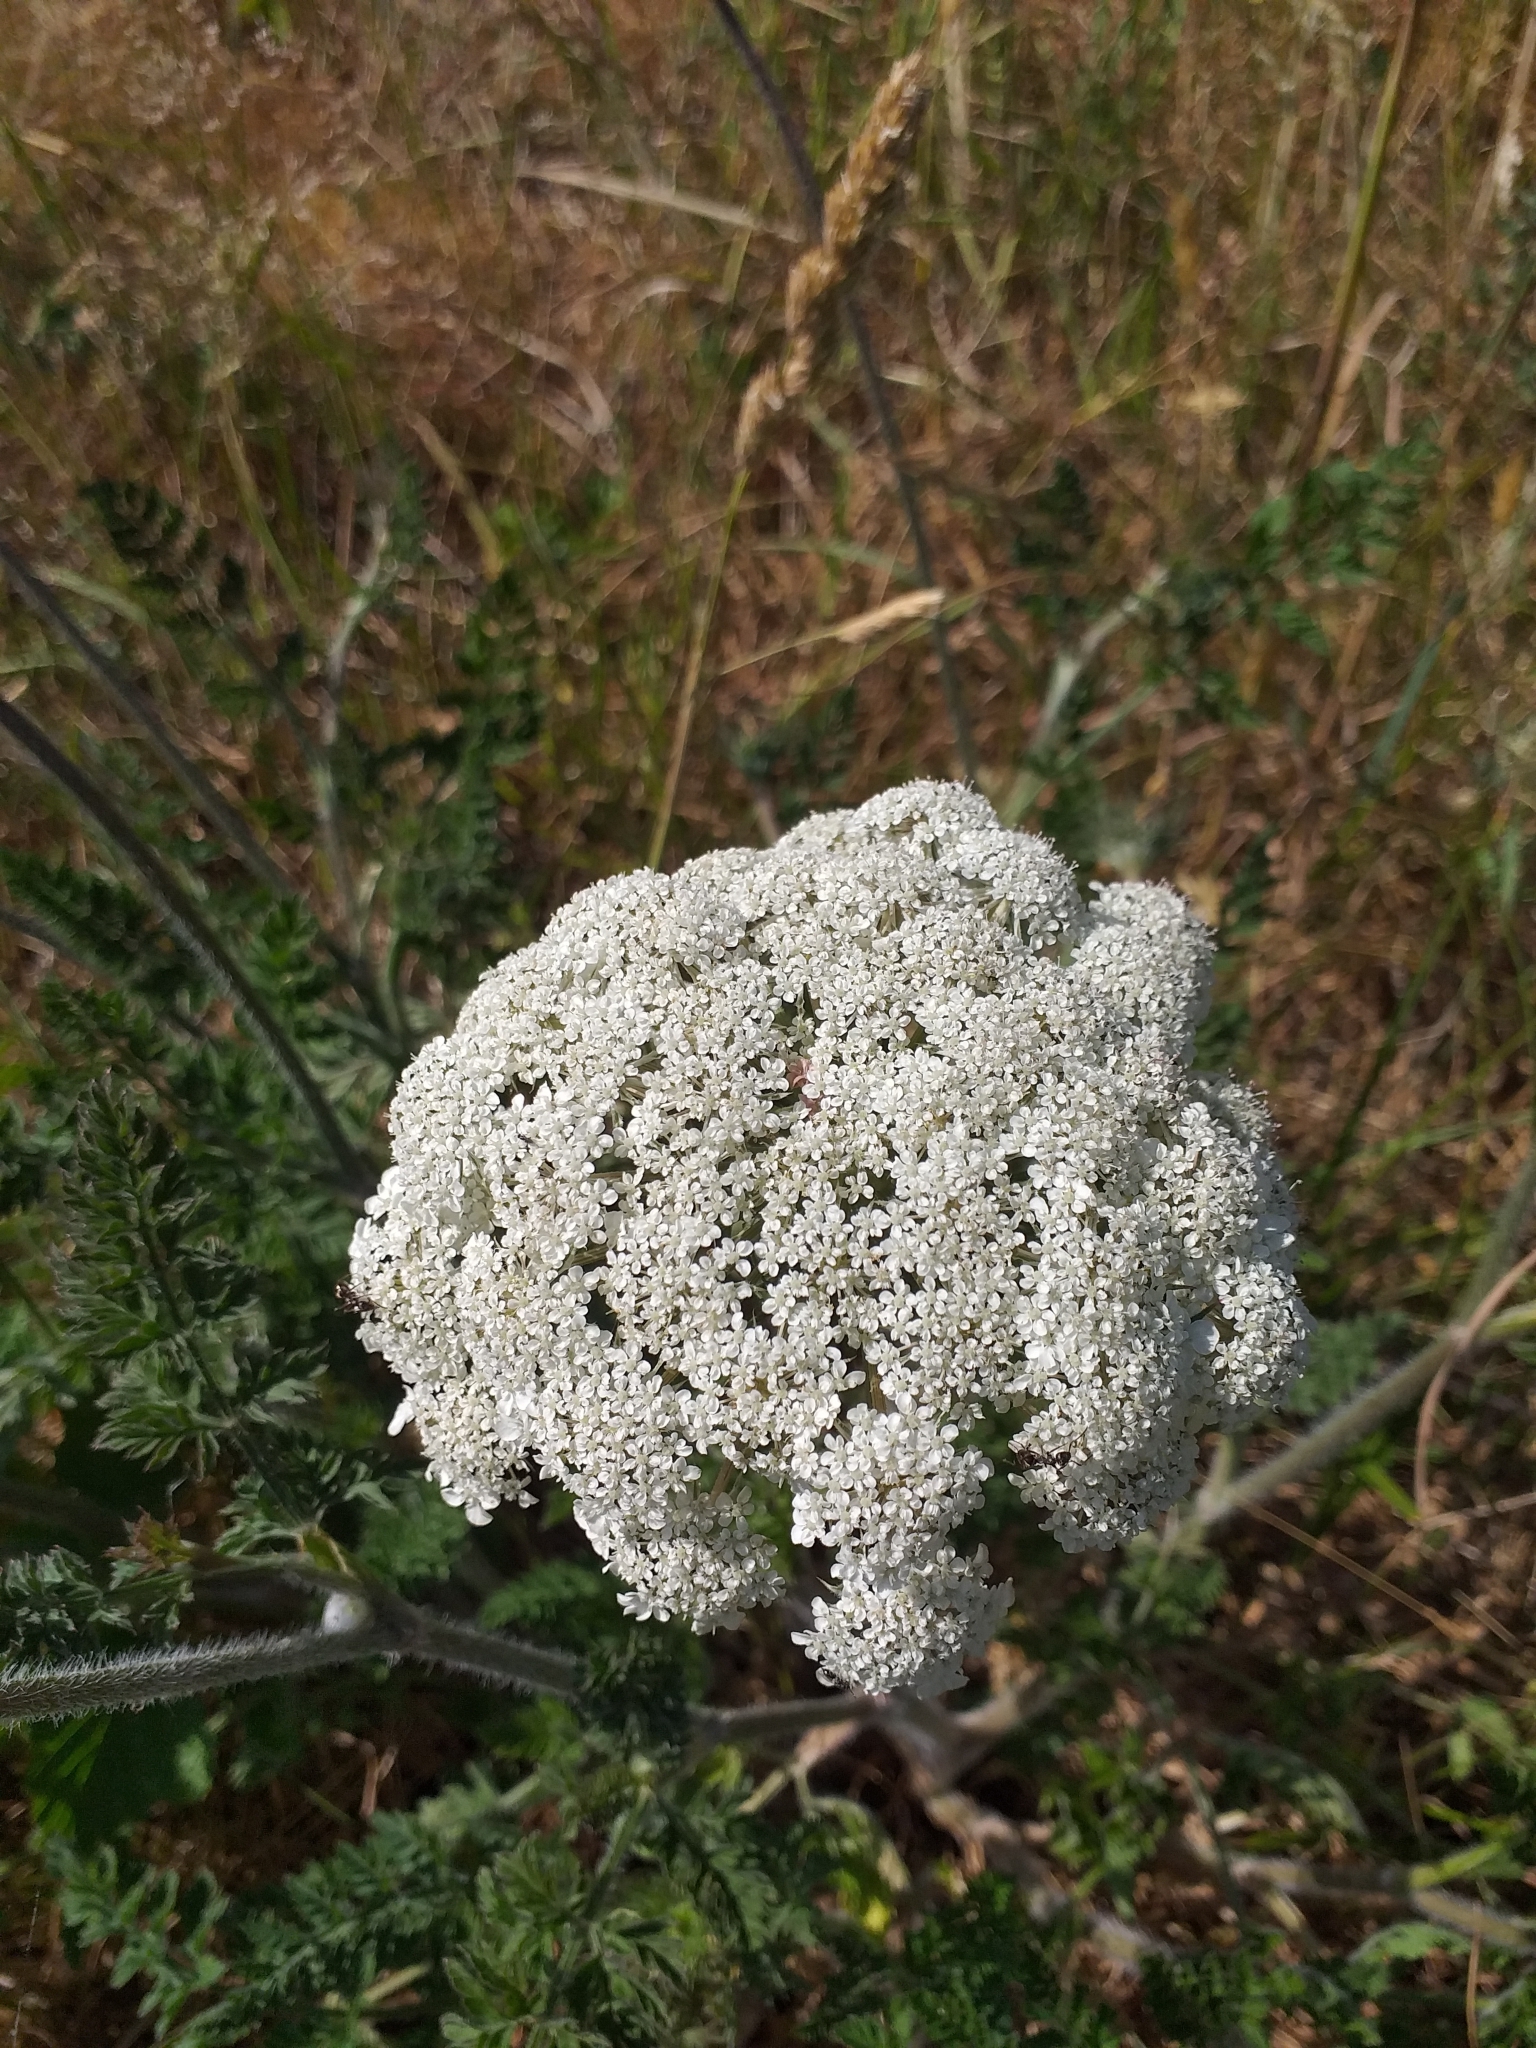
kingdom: Plantae
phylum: Tracheophyta
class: Magnoliopsida
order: Apiales
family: Apiaceae
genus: Daucus
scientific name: Daucus carota
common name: Wild carrot
